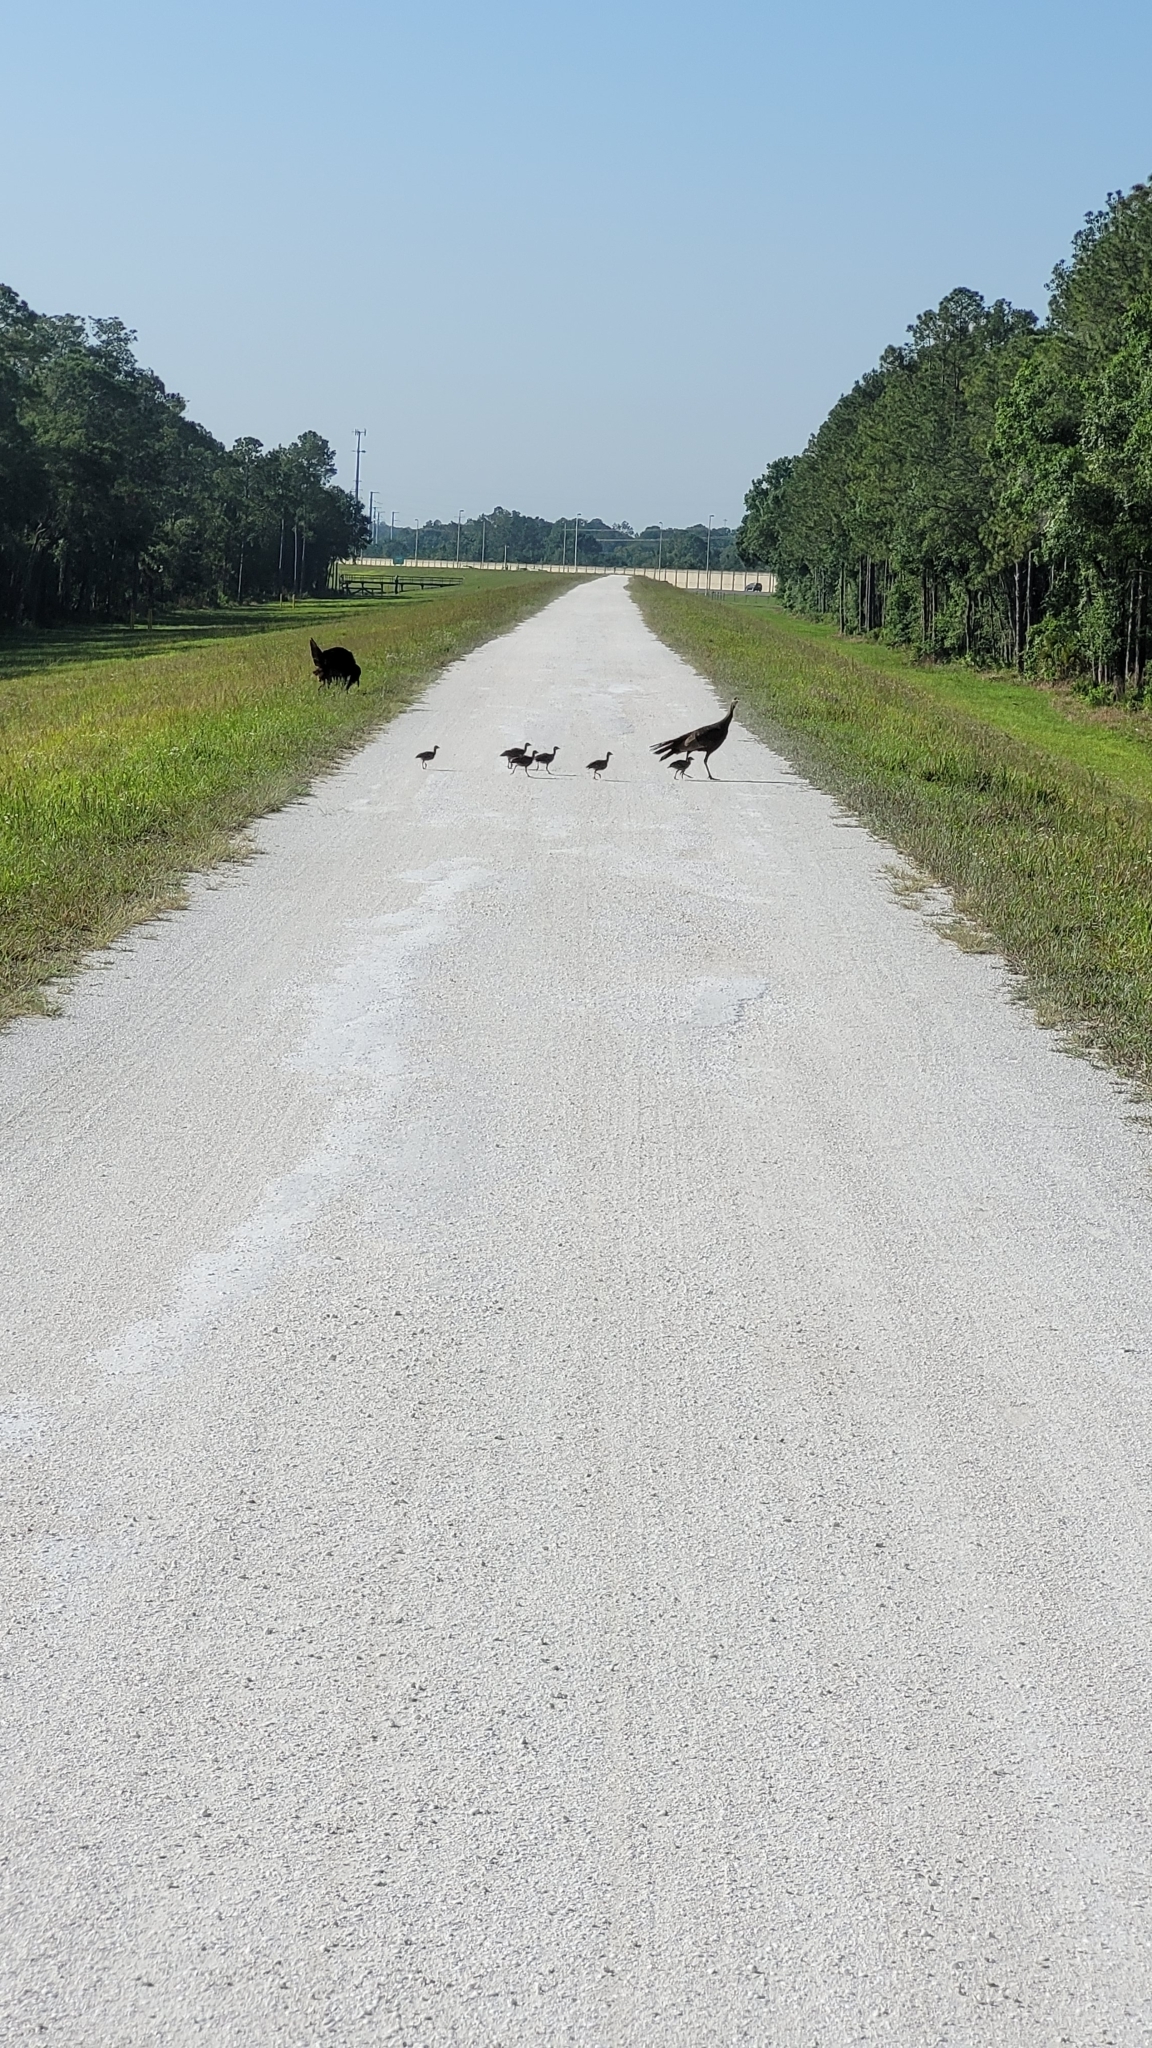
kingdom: Animalia
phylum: Chordata
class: Aves
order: Galliformes
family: Phasianidae
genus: Meleagris
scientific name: Meleagris gallopavo
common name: Wild turkey
